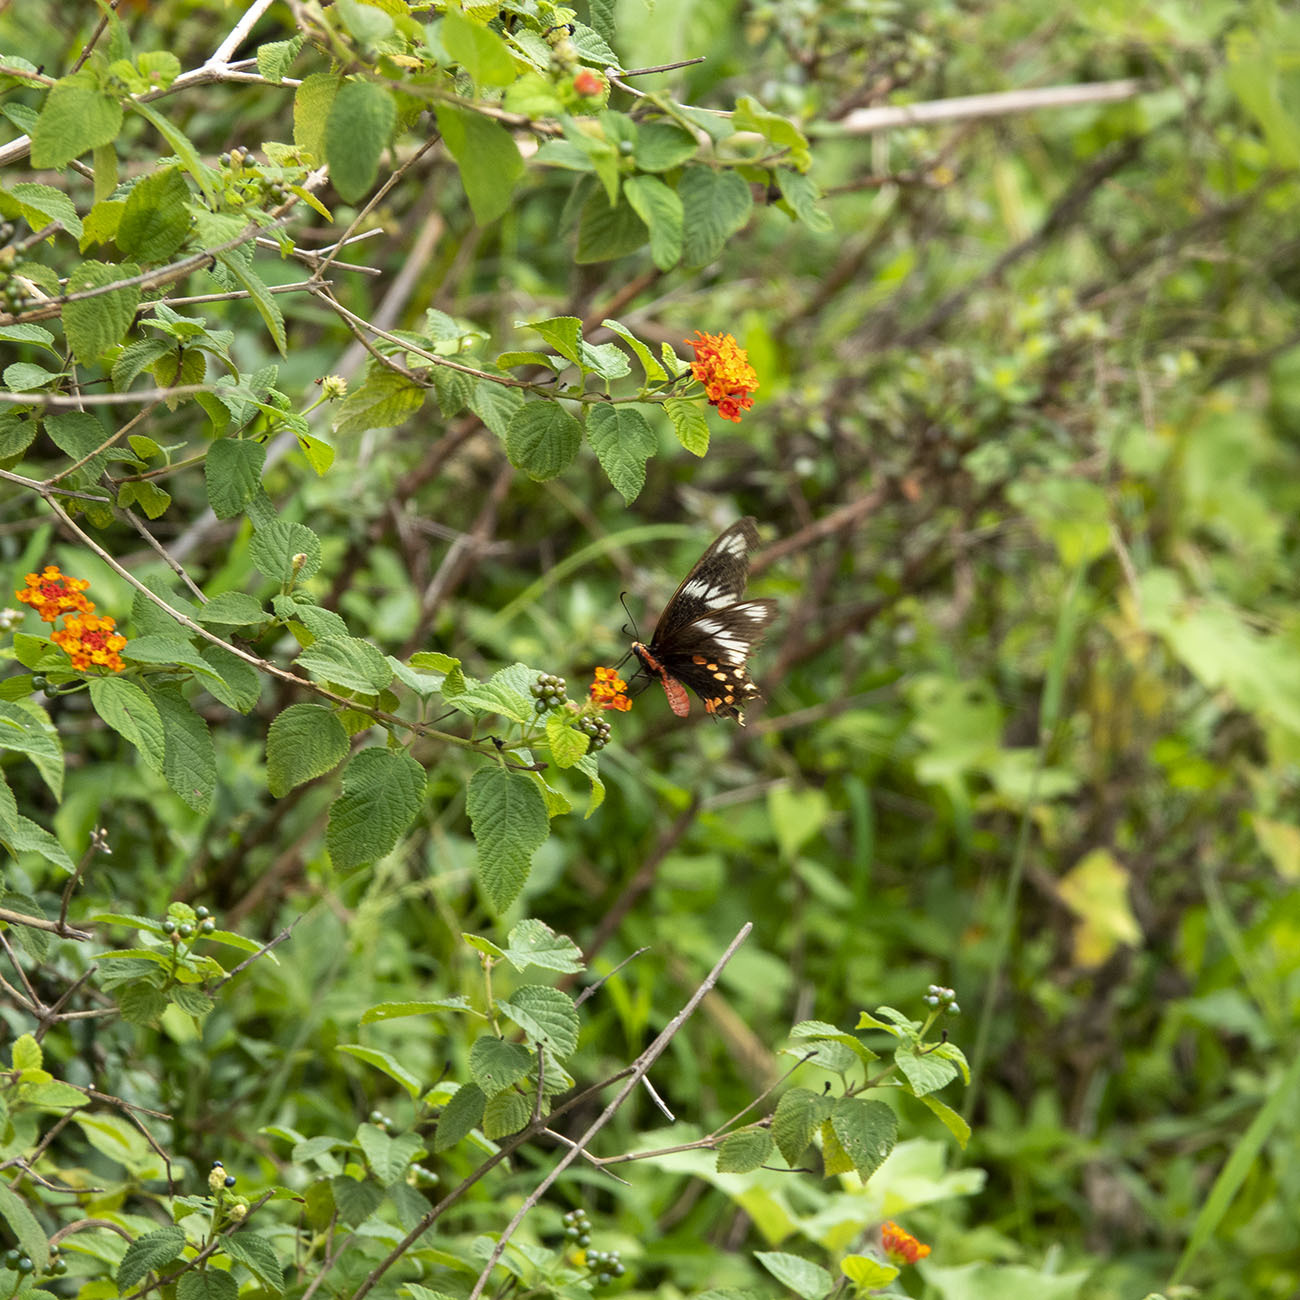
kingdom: Animalia
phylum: Arthropoda
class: Insecta
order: Lepidoptera
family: Papilionidae
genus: Pachliopta
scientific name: Pachliopta hector
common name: Crimson rose
